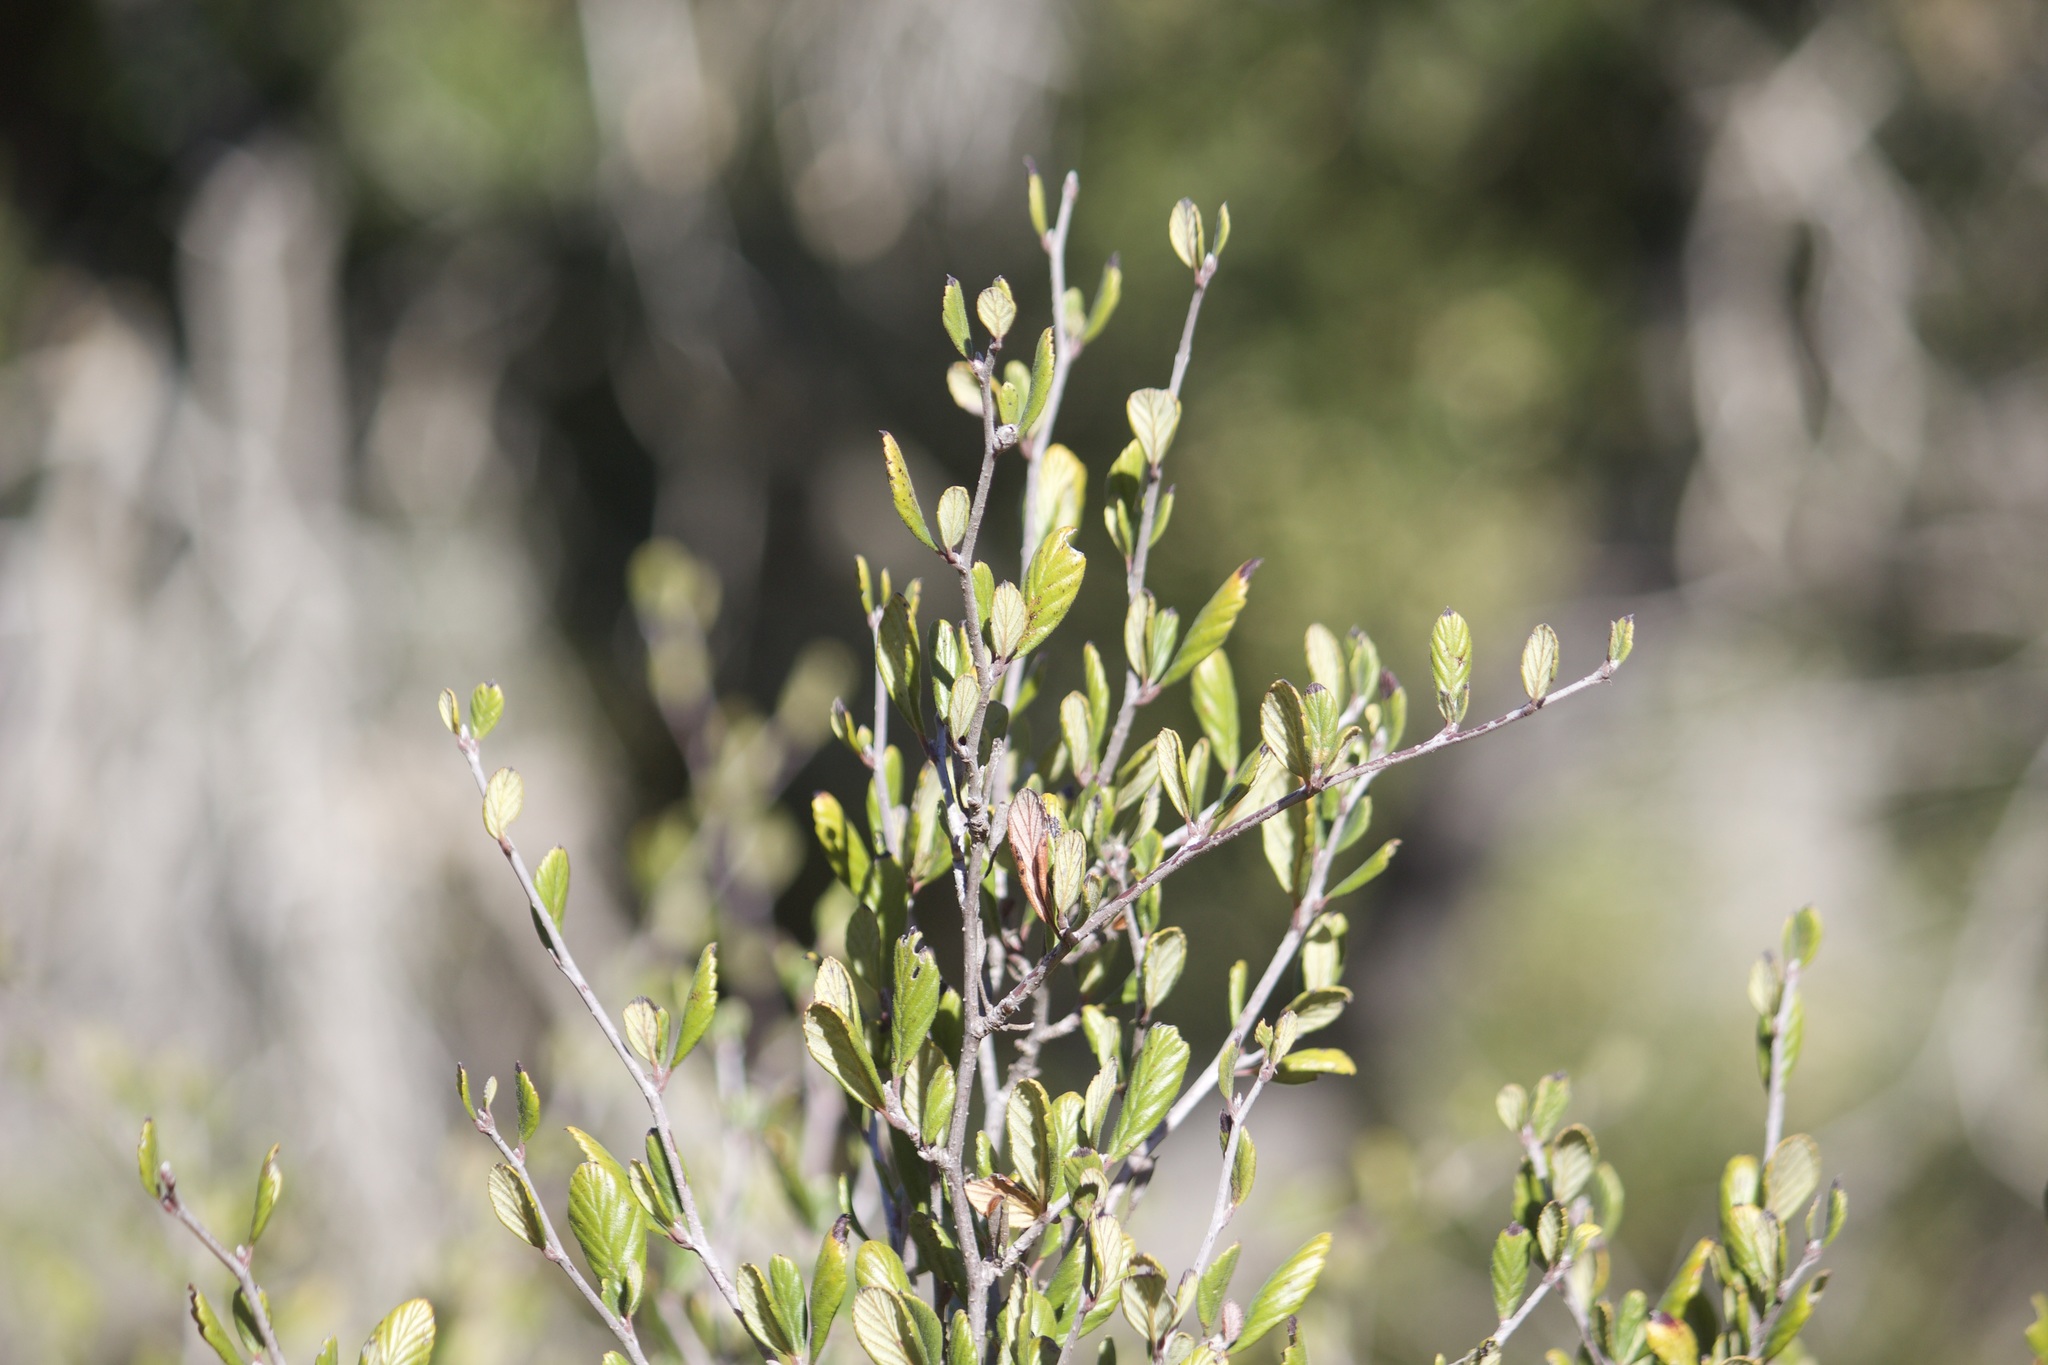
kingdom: Plantae
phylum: Tracheophyta
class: Magnoliopsida
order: Rosales
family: Rosaceae
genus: Cercocarpus
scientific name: Cercocarpus
